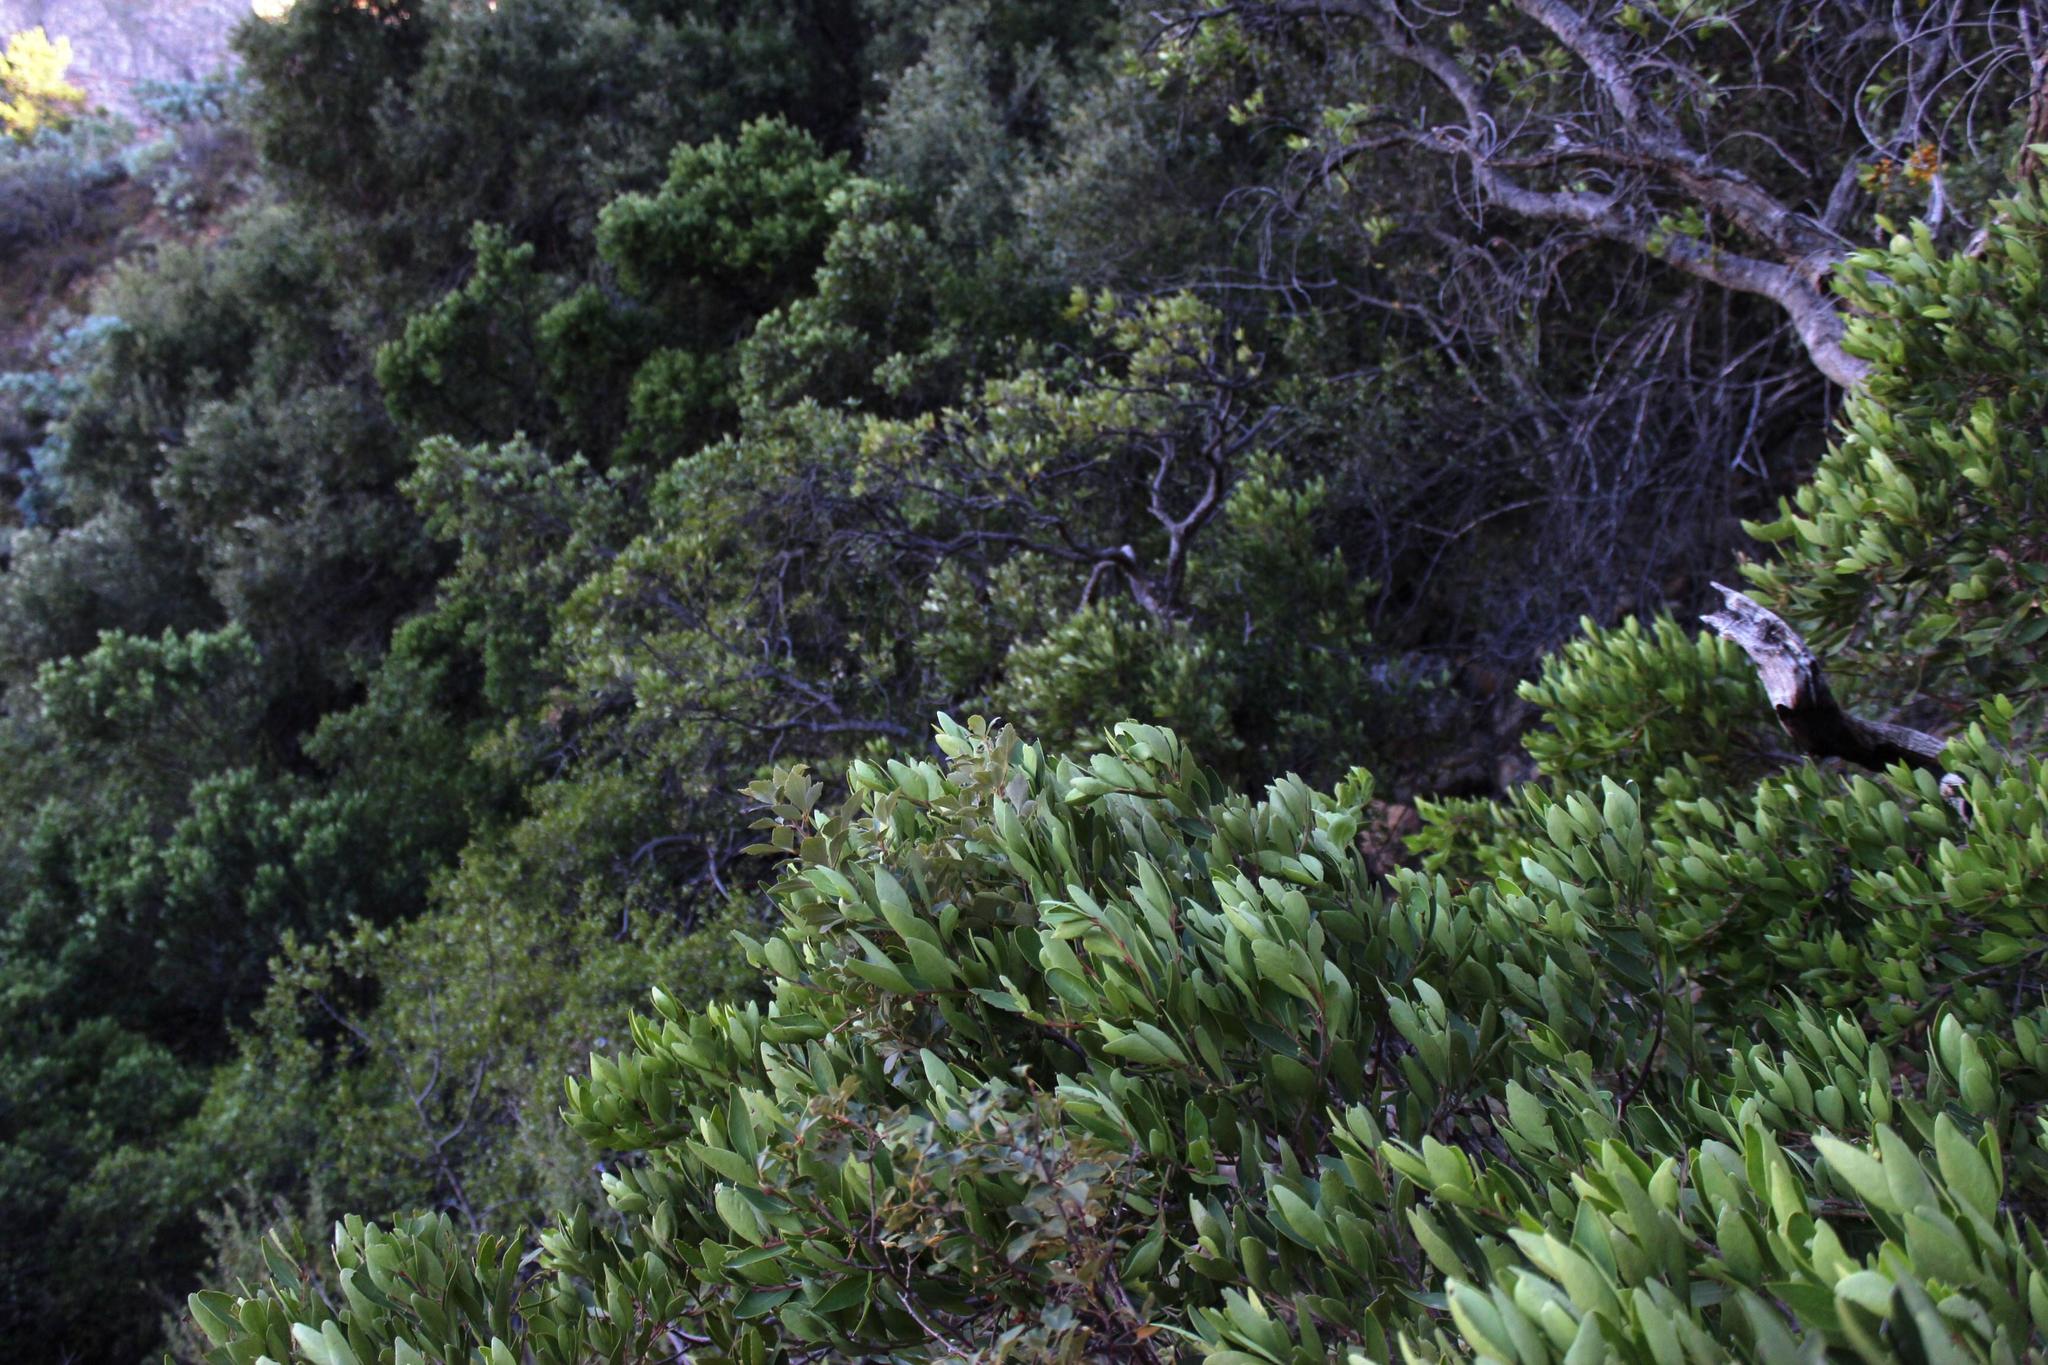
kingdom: Plantae
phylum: Tracheophyta
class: Magnoliopsida
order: Celastrales
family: Celastraceae
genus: Gymnosporia
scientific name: Gymnosporia laurina
